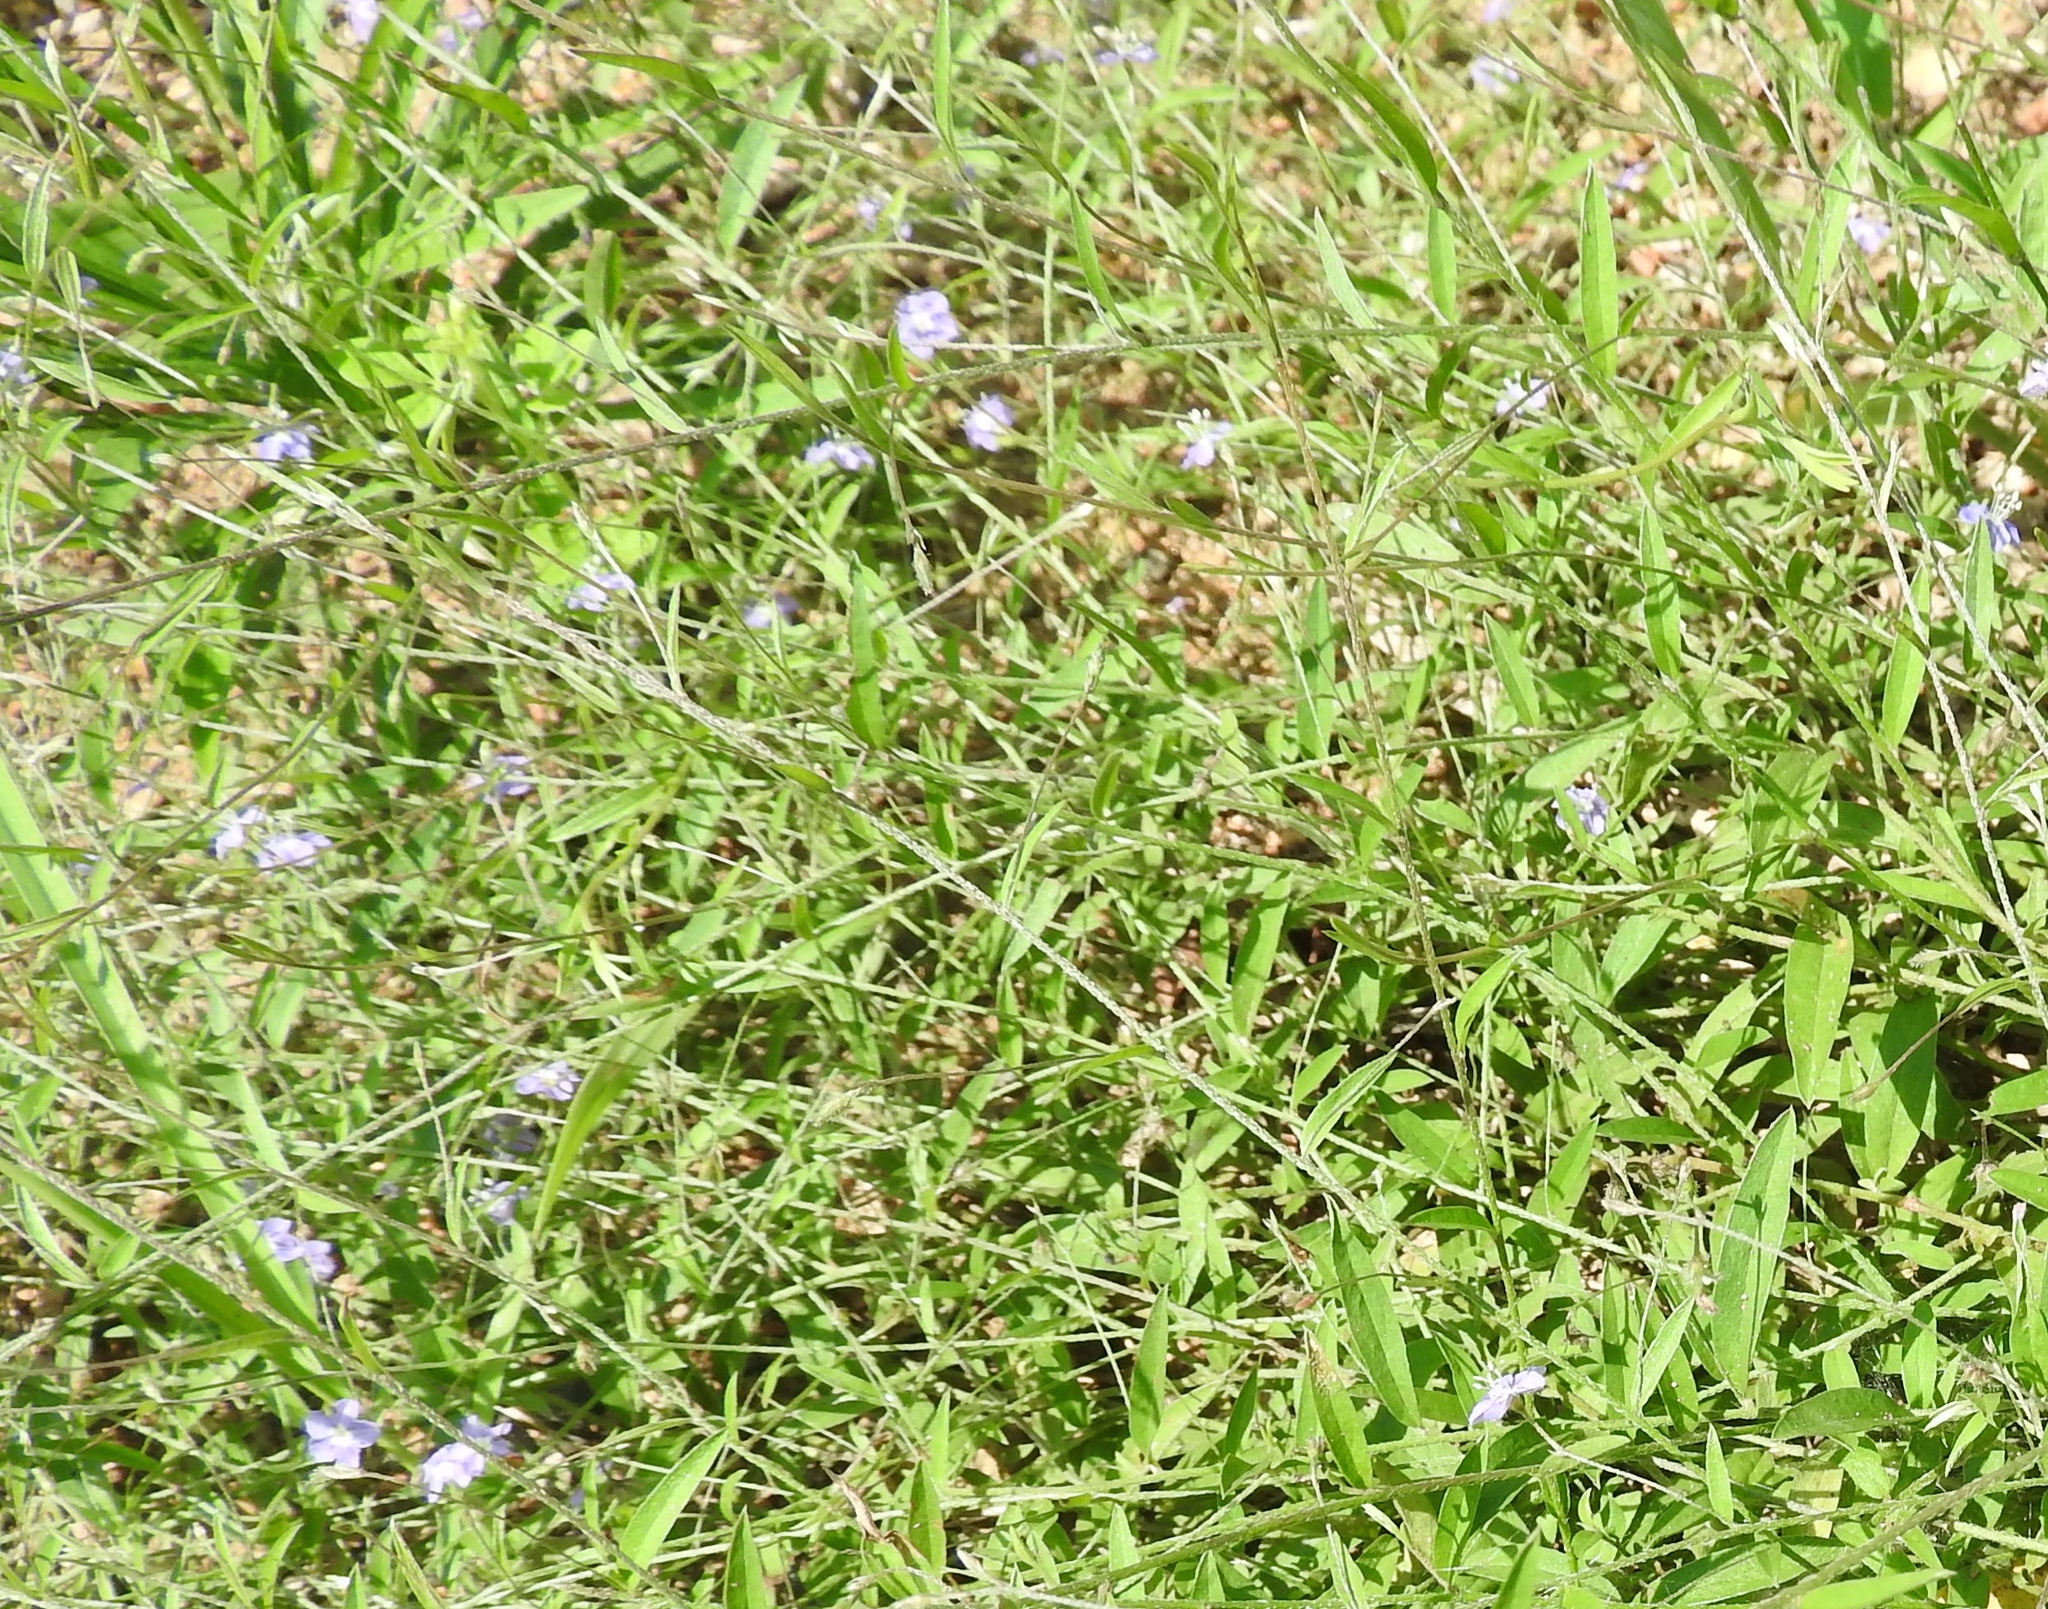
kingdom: Plantae
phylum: Tracheophyta
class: Magnoliopsida
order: Solanales
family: Convolvulaceae
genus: Evolvulus
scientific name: Evolvulus alsinoides
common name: Slender dwarf morning-glory
